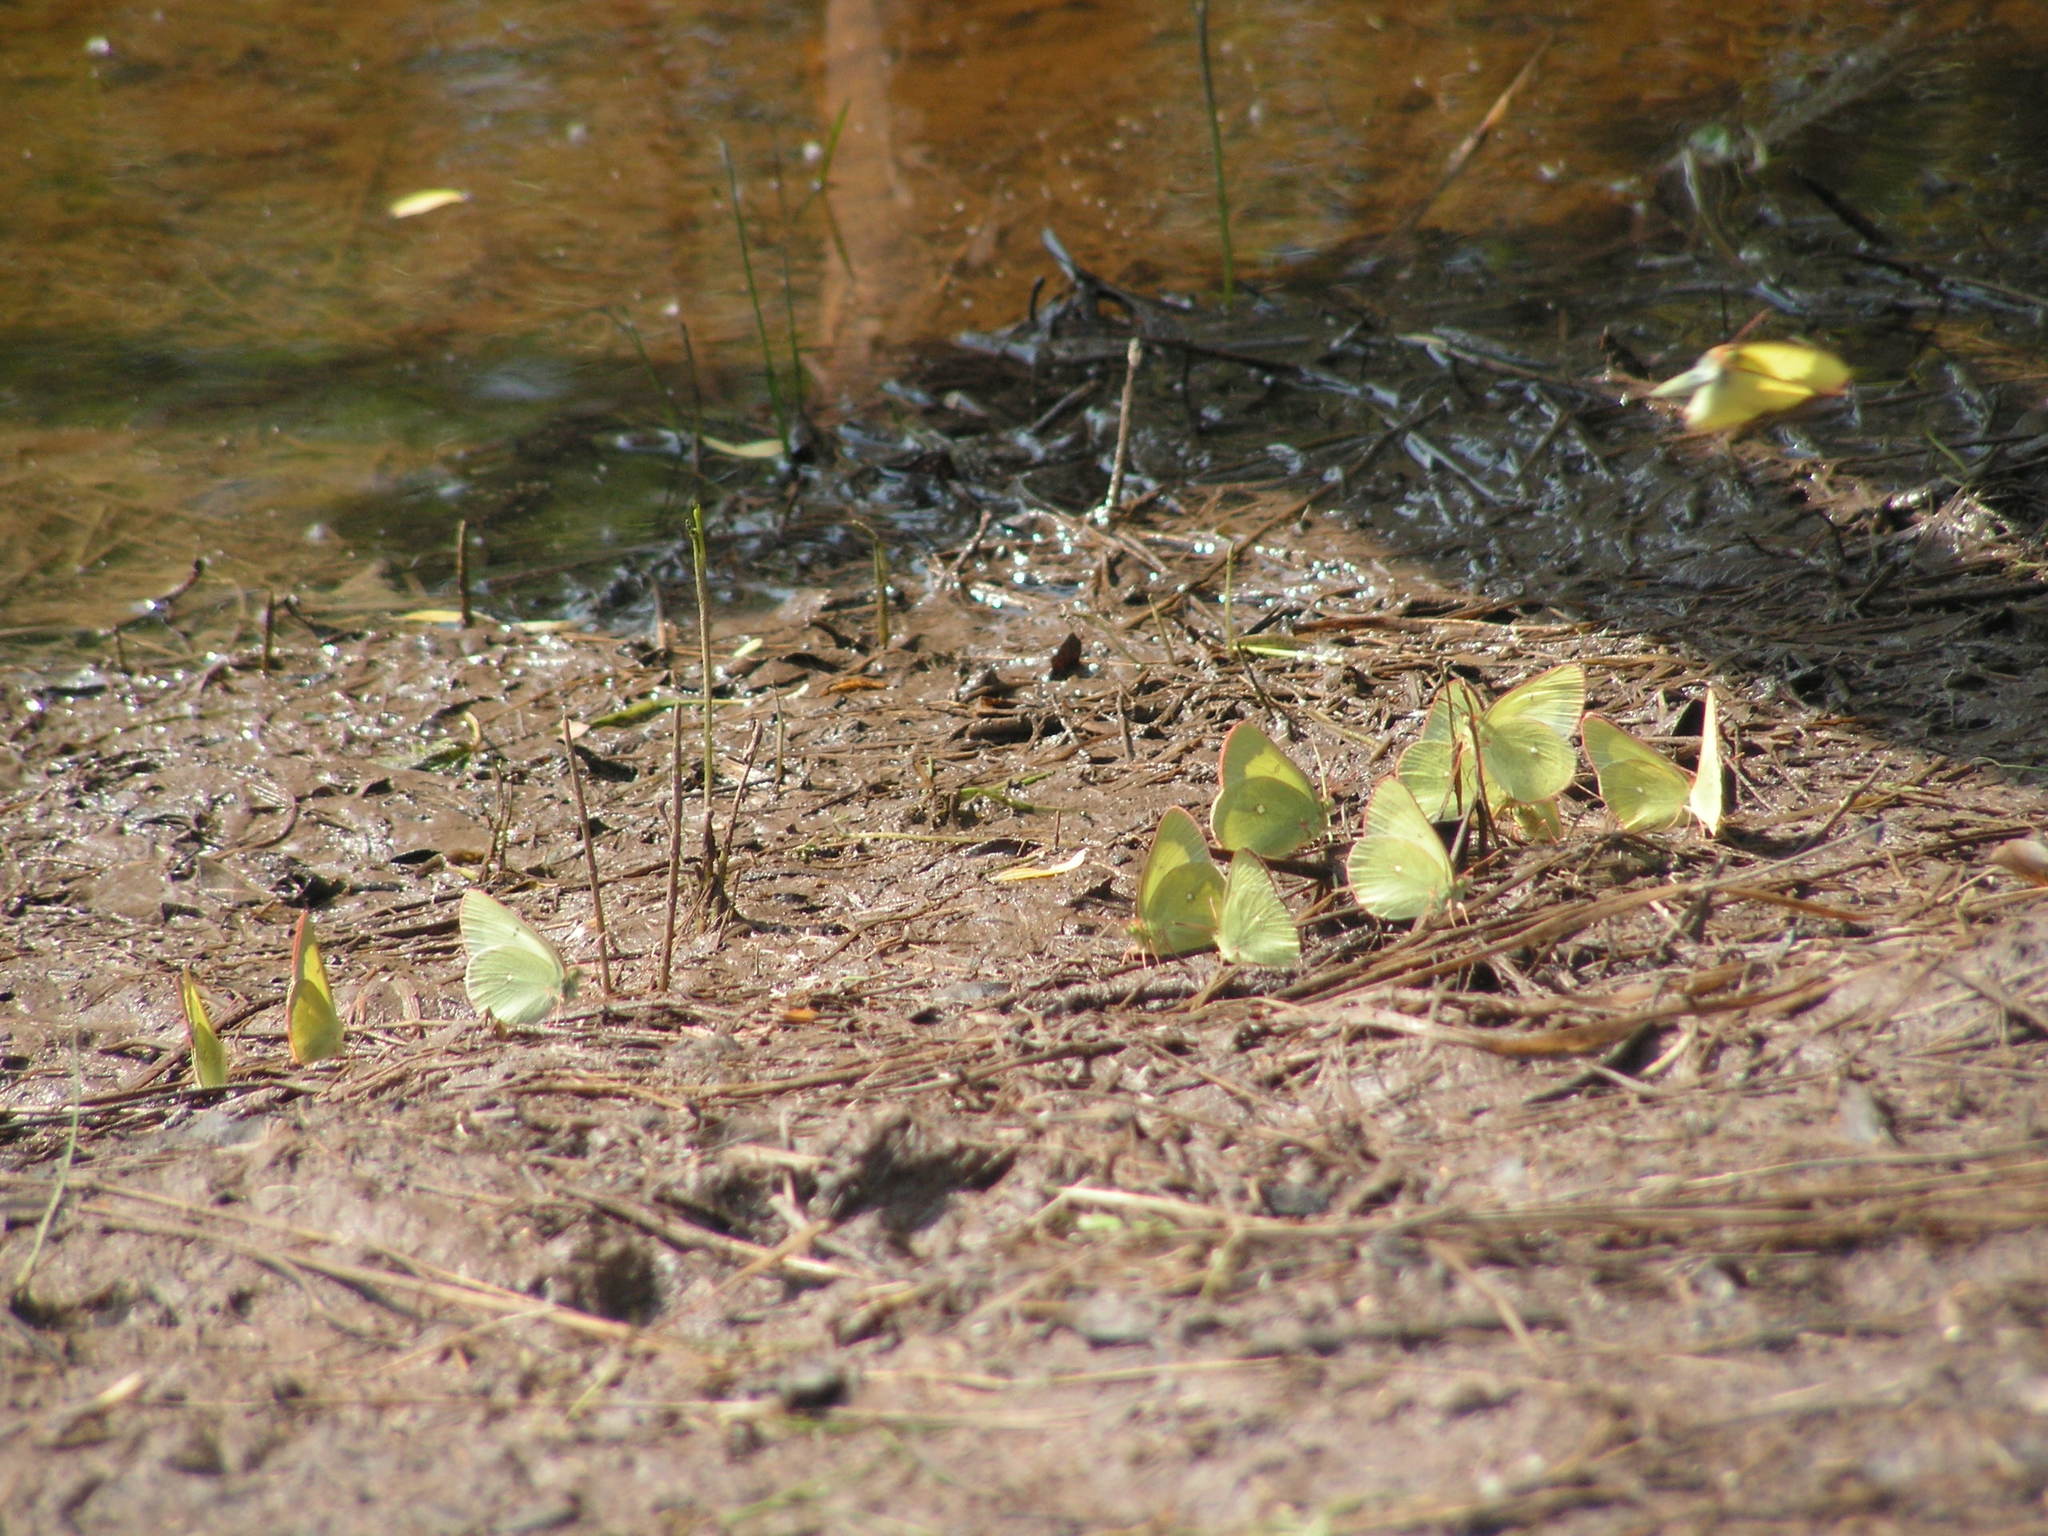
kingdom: Animalia
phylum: Arthropoda
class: Insecta
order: Lepidoptera
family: Pieridae
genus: Colias
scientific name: Colias palaeno
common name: Moorland clouded yellow
